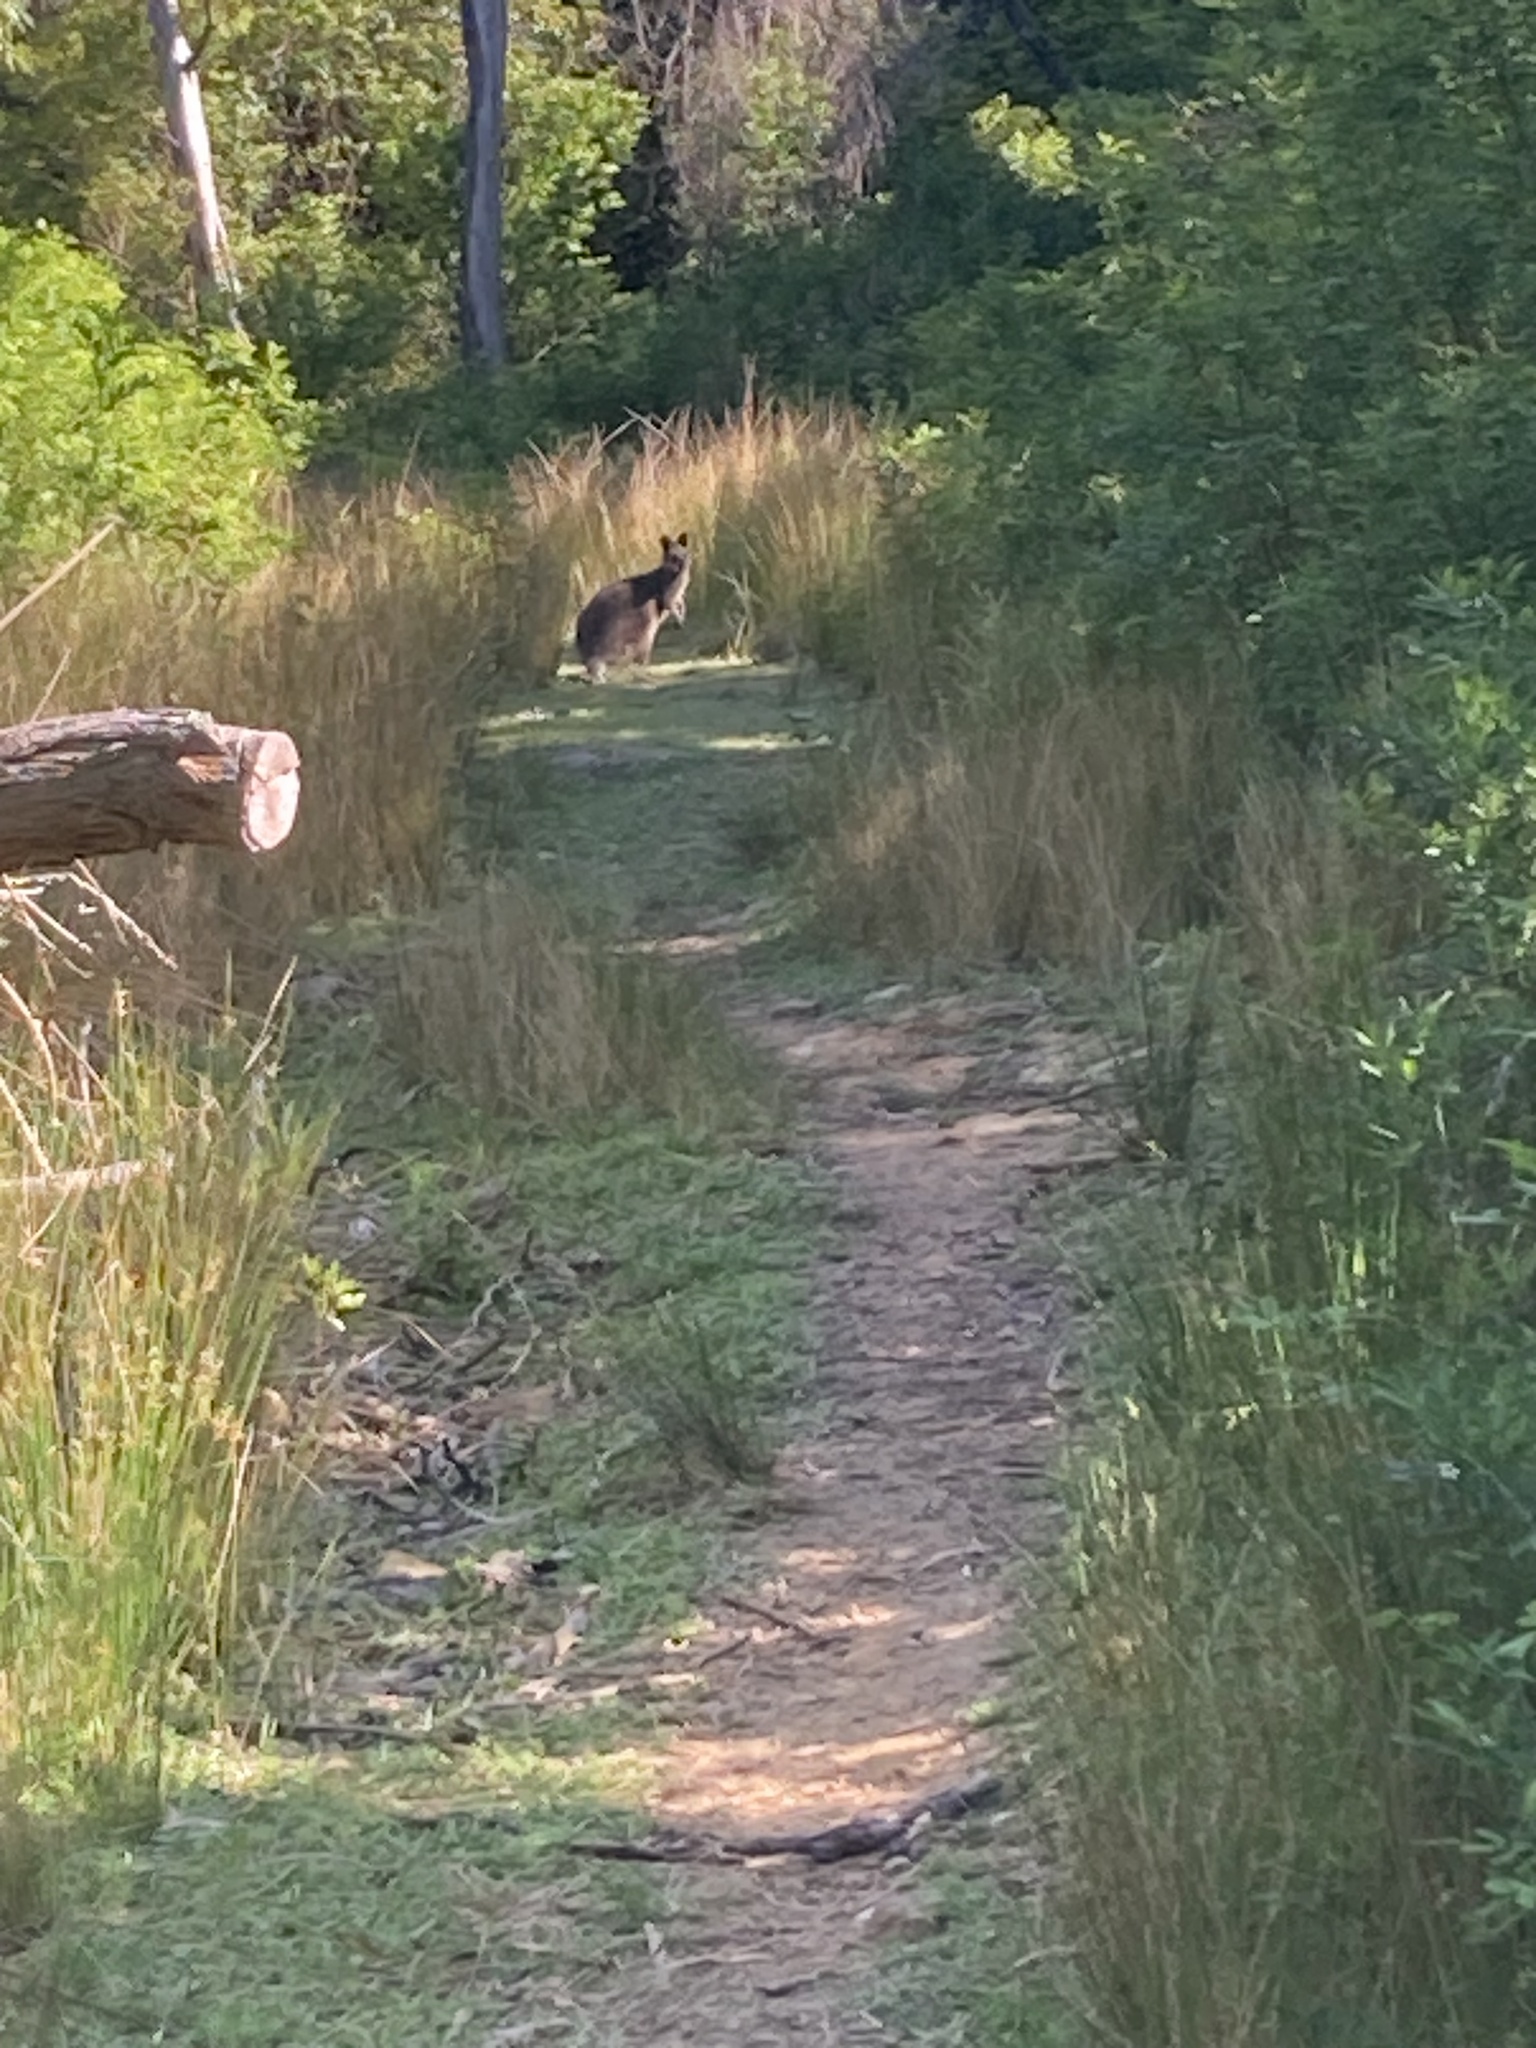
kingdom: Animalia
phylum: Chordata
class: Mammalia
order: Diprotodontia
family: Macropodidae
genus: Wallabia
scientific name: Wallabia bicolor
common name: Swamp wallaby
